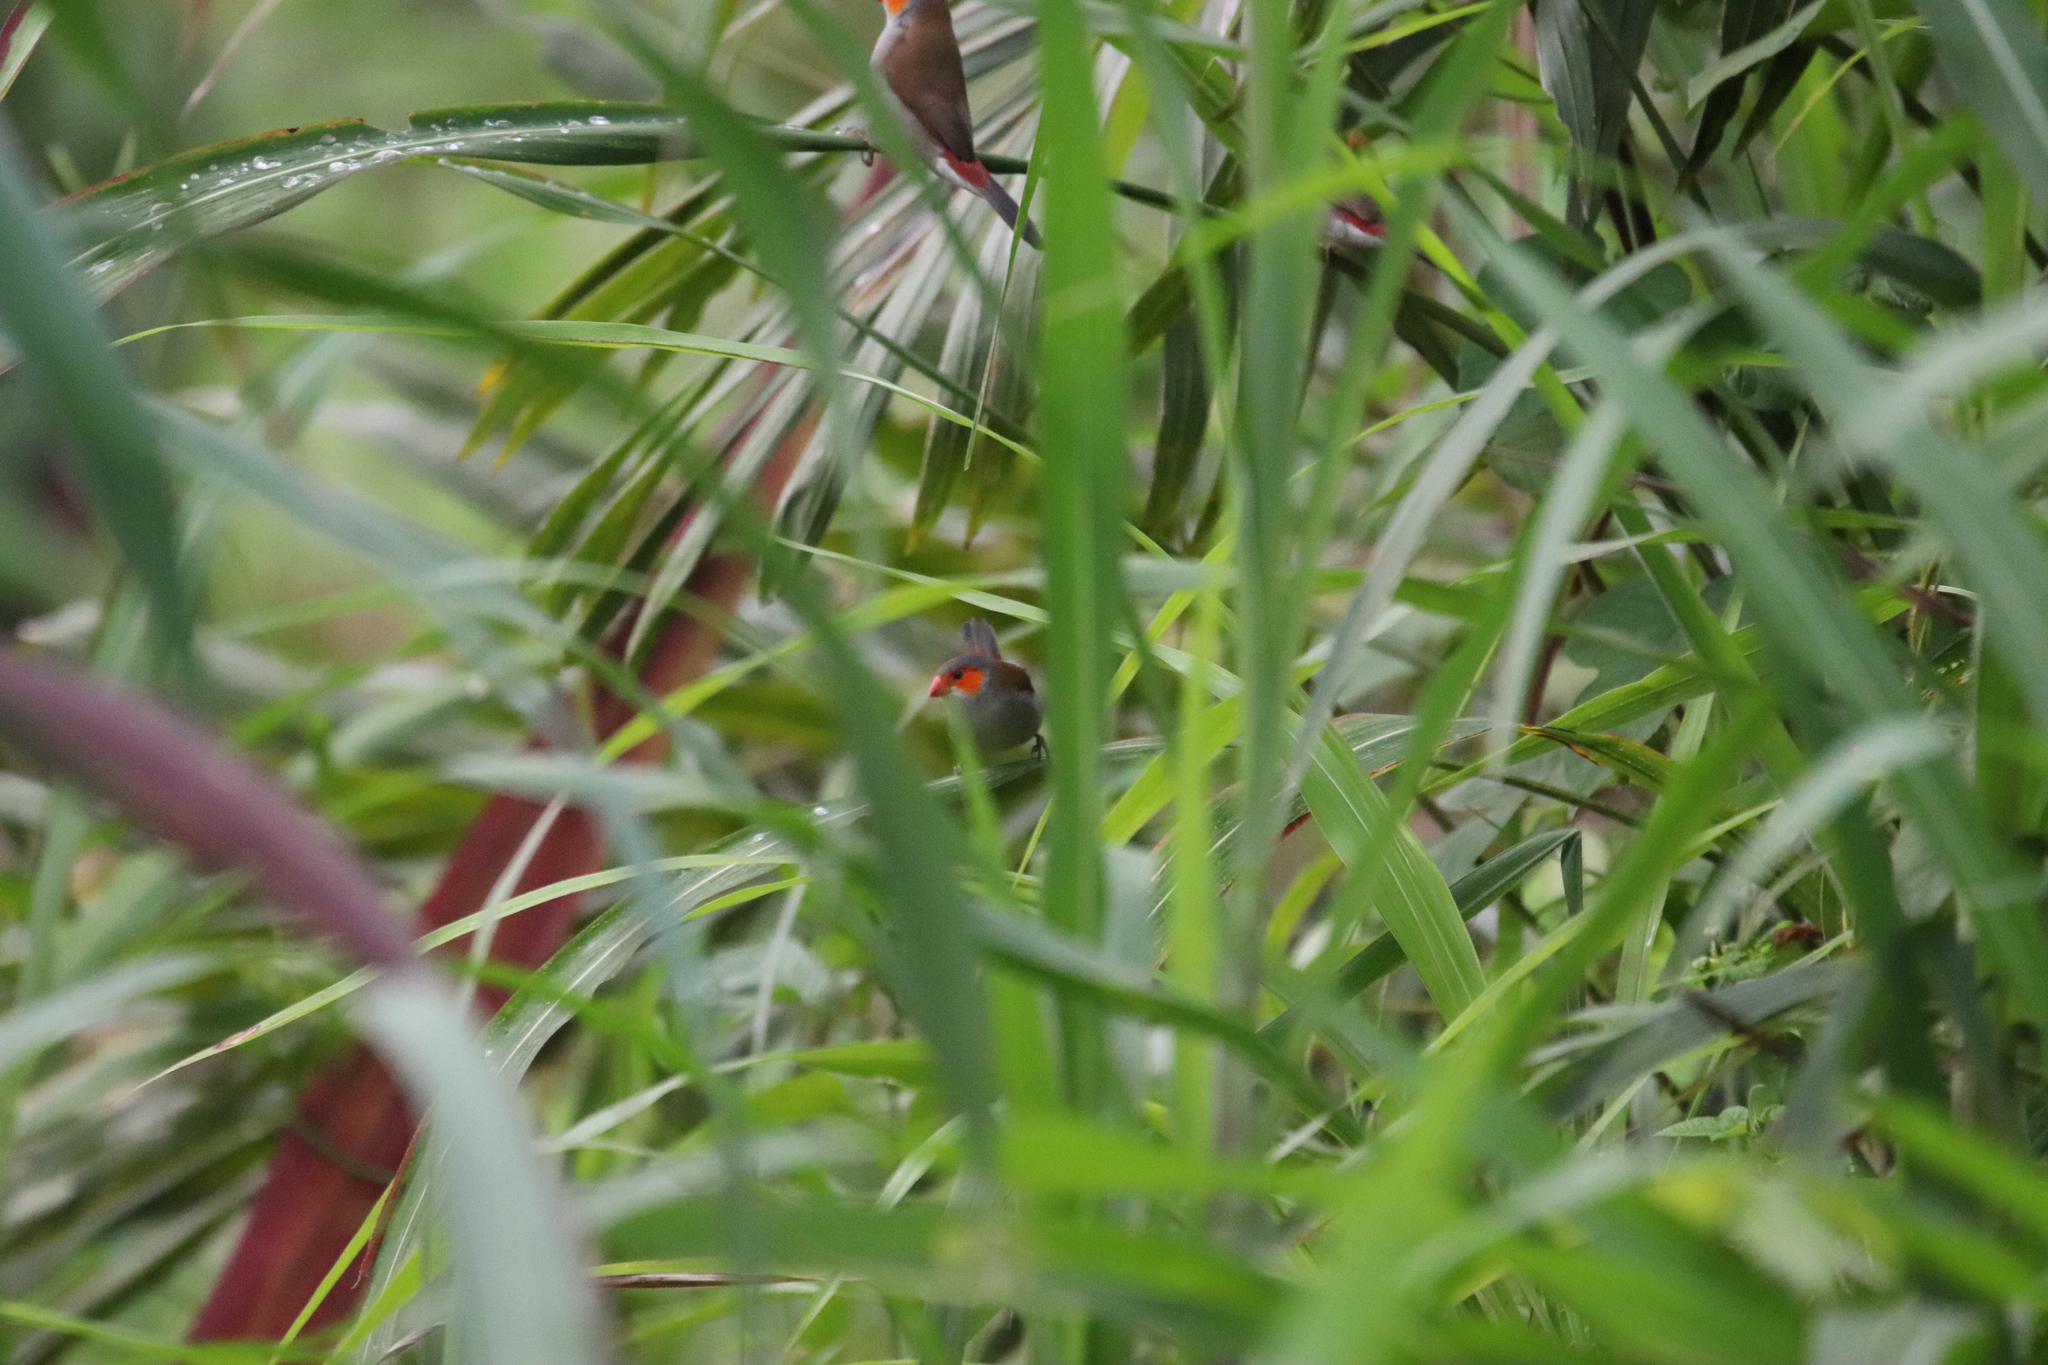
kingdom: Animalia
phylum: Chordata
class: Aves
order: Passeriformes
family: Estrildidae
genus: Estrilda
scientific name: Estrilda melpoda
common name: Orange-cheeked waxbill
